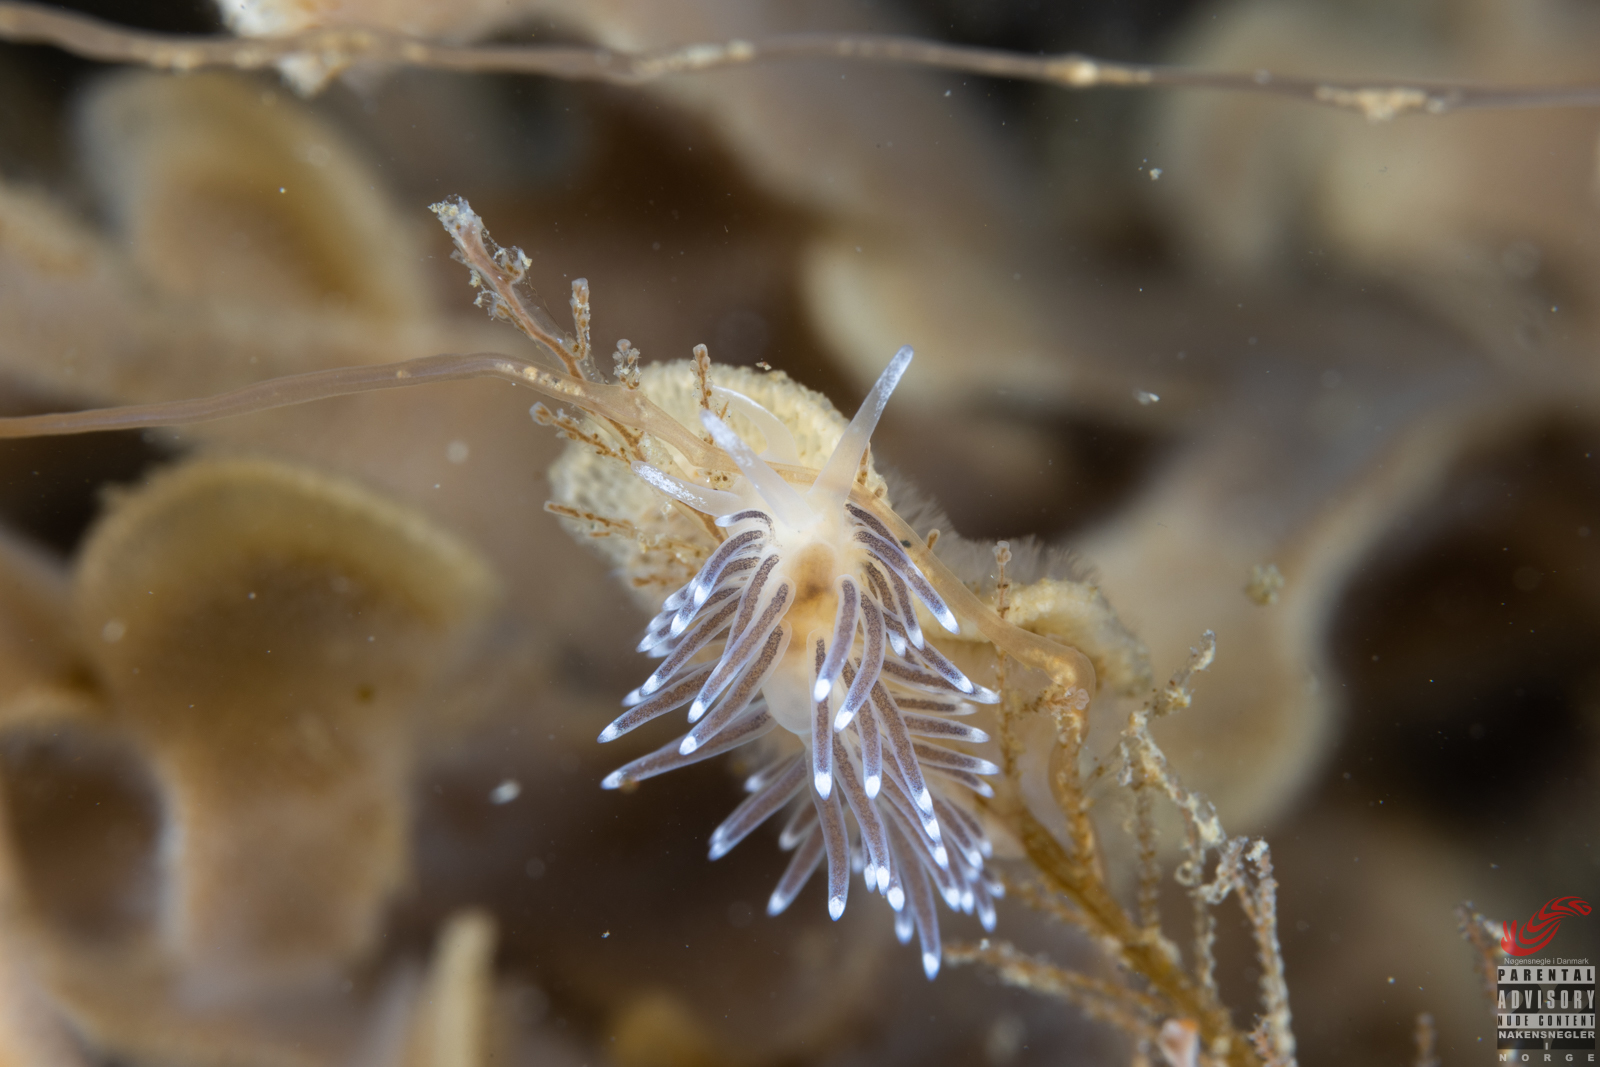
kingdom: Animalia
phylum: Mollusca
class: Gastropoda
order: Nudibranchia
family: Cuthonellidae
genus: Cuthonella
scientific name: Cuthonella concinna
